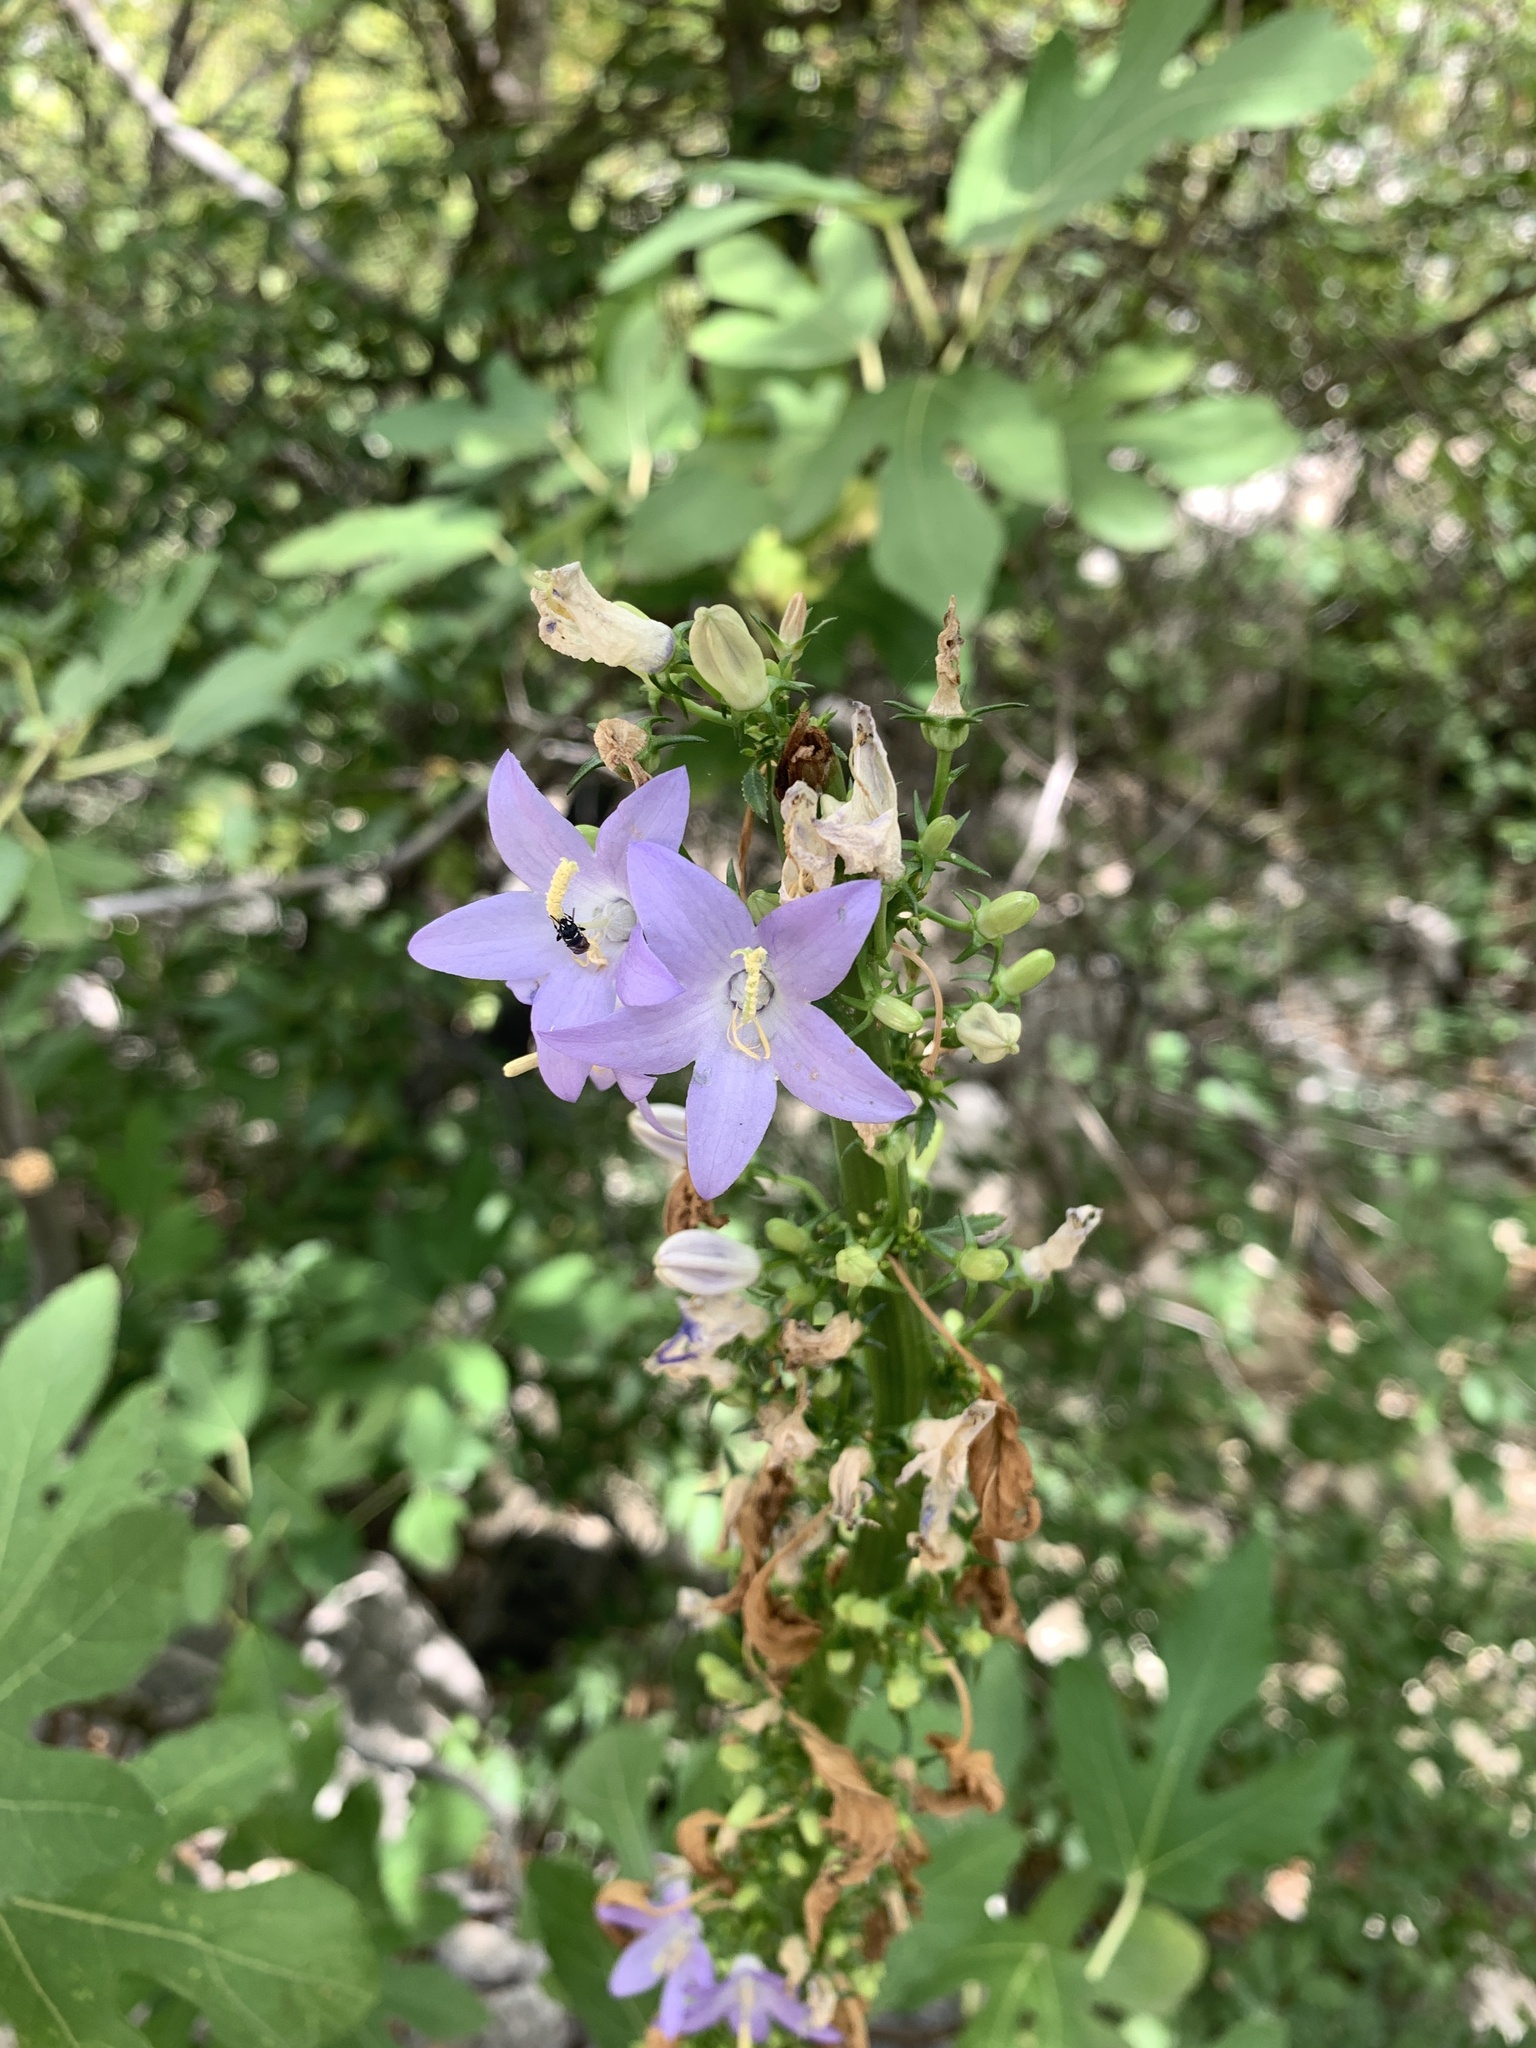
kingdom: Plantae
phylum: Tracheophyta
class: Magnoliopsida
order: Asterales
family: Campanulaceae
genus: Campanula
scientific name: Campanula pyramidalis
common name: Chimney bellflower
